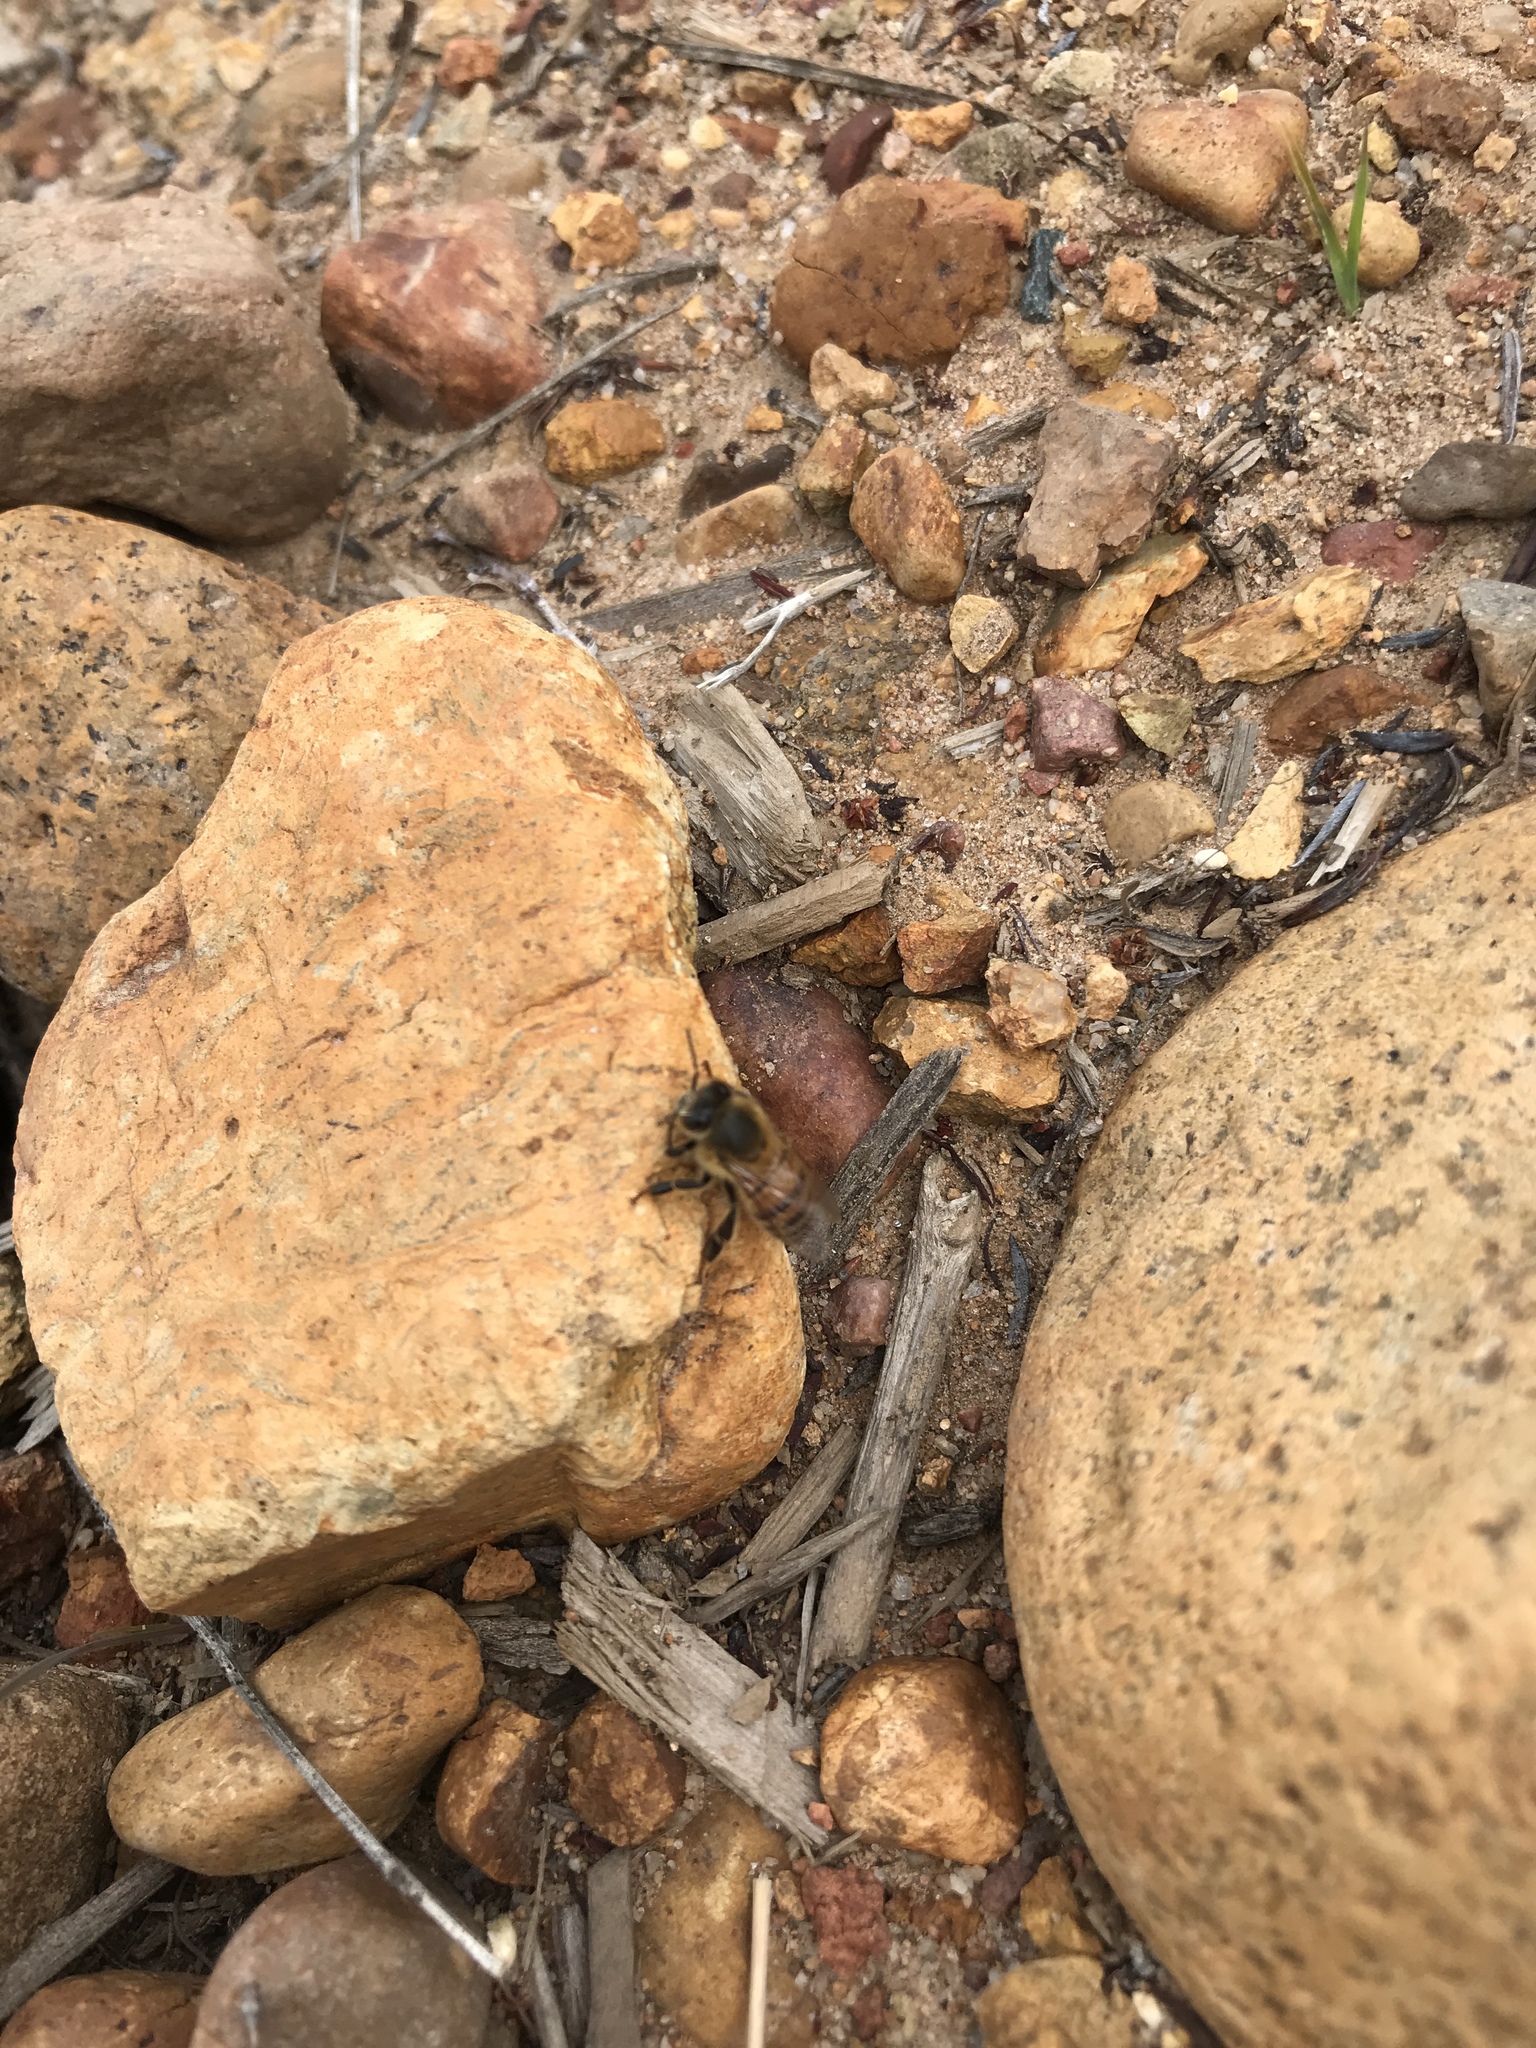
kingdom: Animalia
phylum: Arthropoda
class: Insecta
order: Hymenoptera
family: Apidae
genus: Apis
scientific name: Apis mellifera
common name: Honey bee
